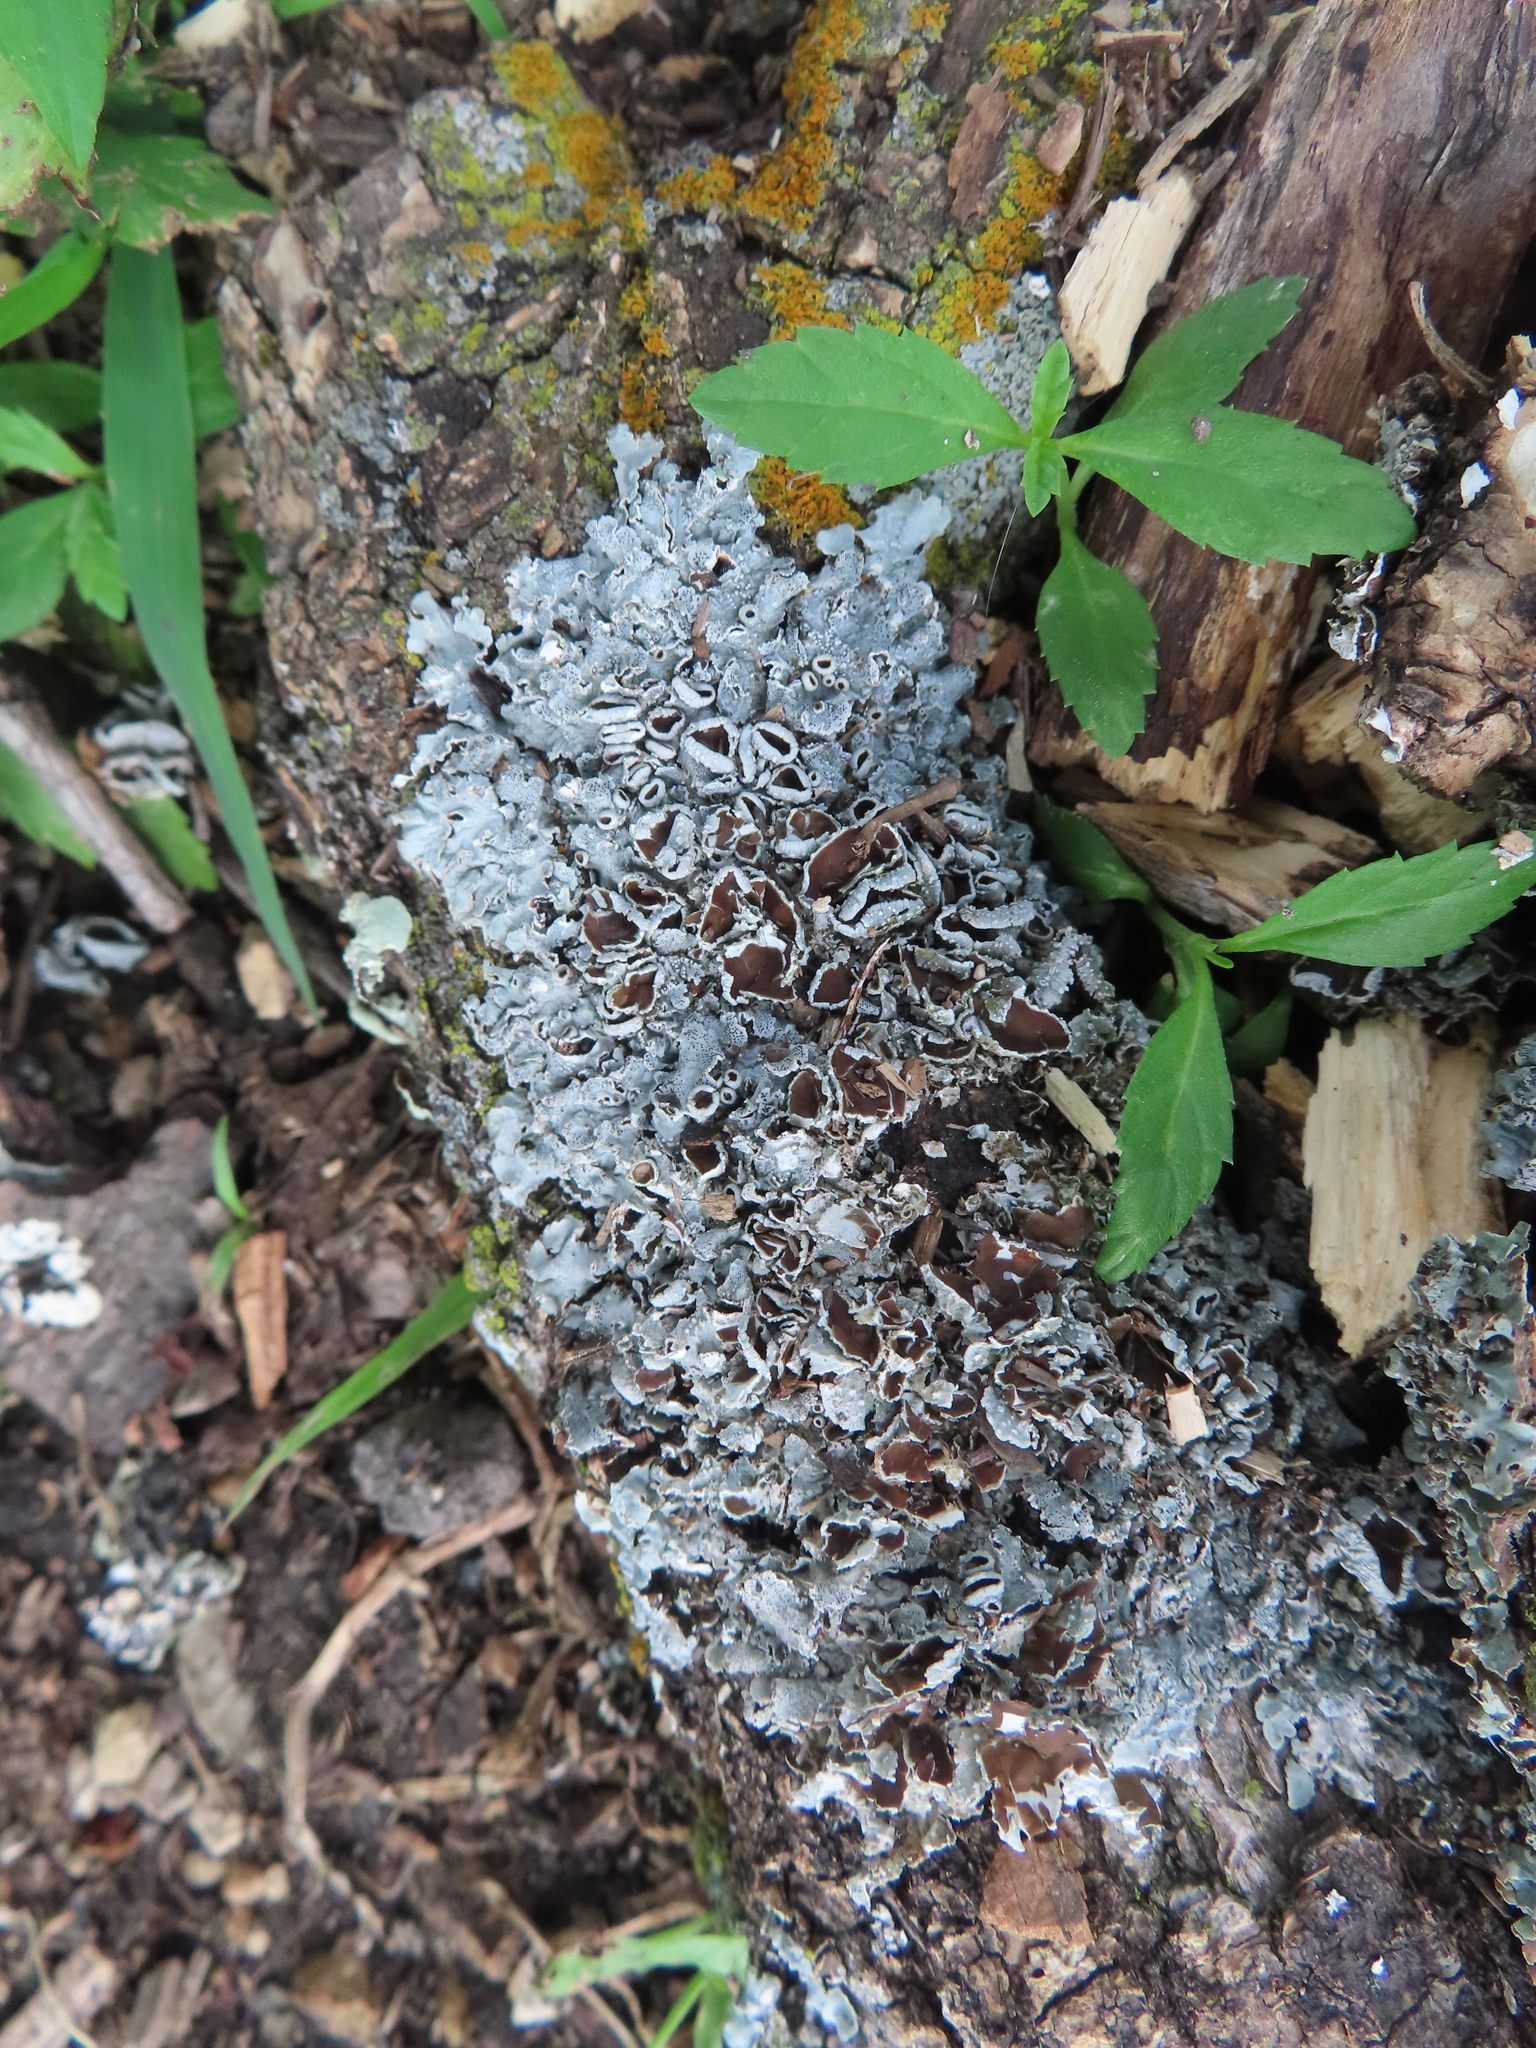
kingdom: Fungi
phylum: Ascomycota
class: Lecanoromycetes
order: Lecanorales
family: Parmeliaceae
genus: Punctelia
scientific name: Punctelia bolliana
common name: Eastern speckled shield lichen
